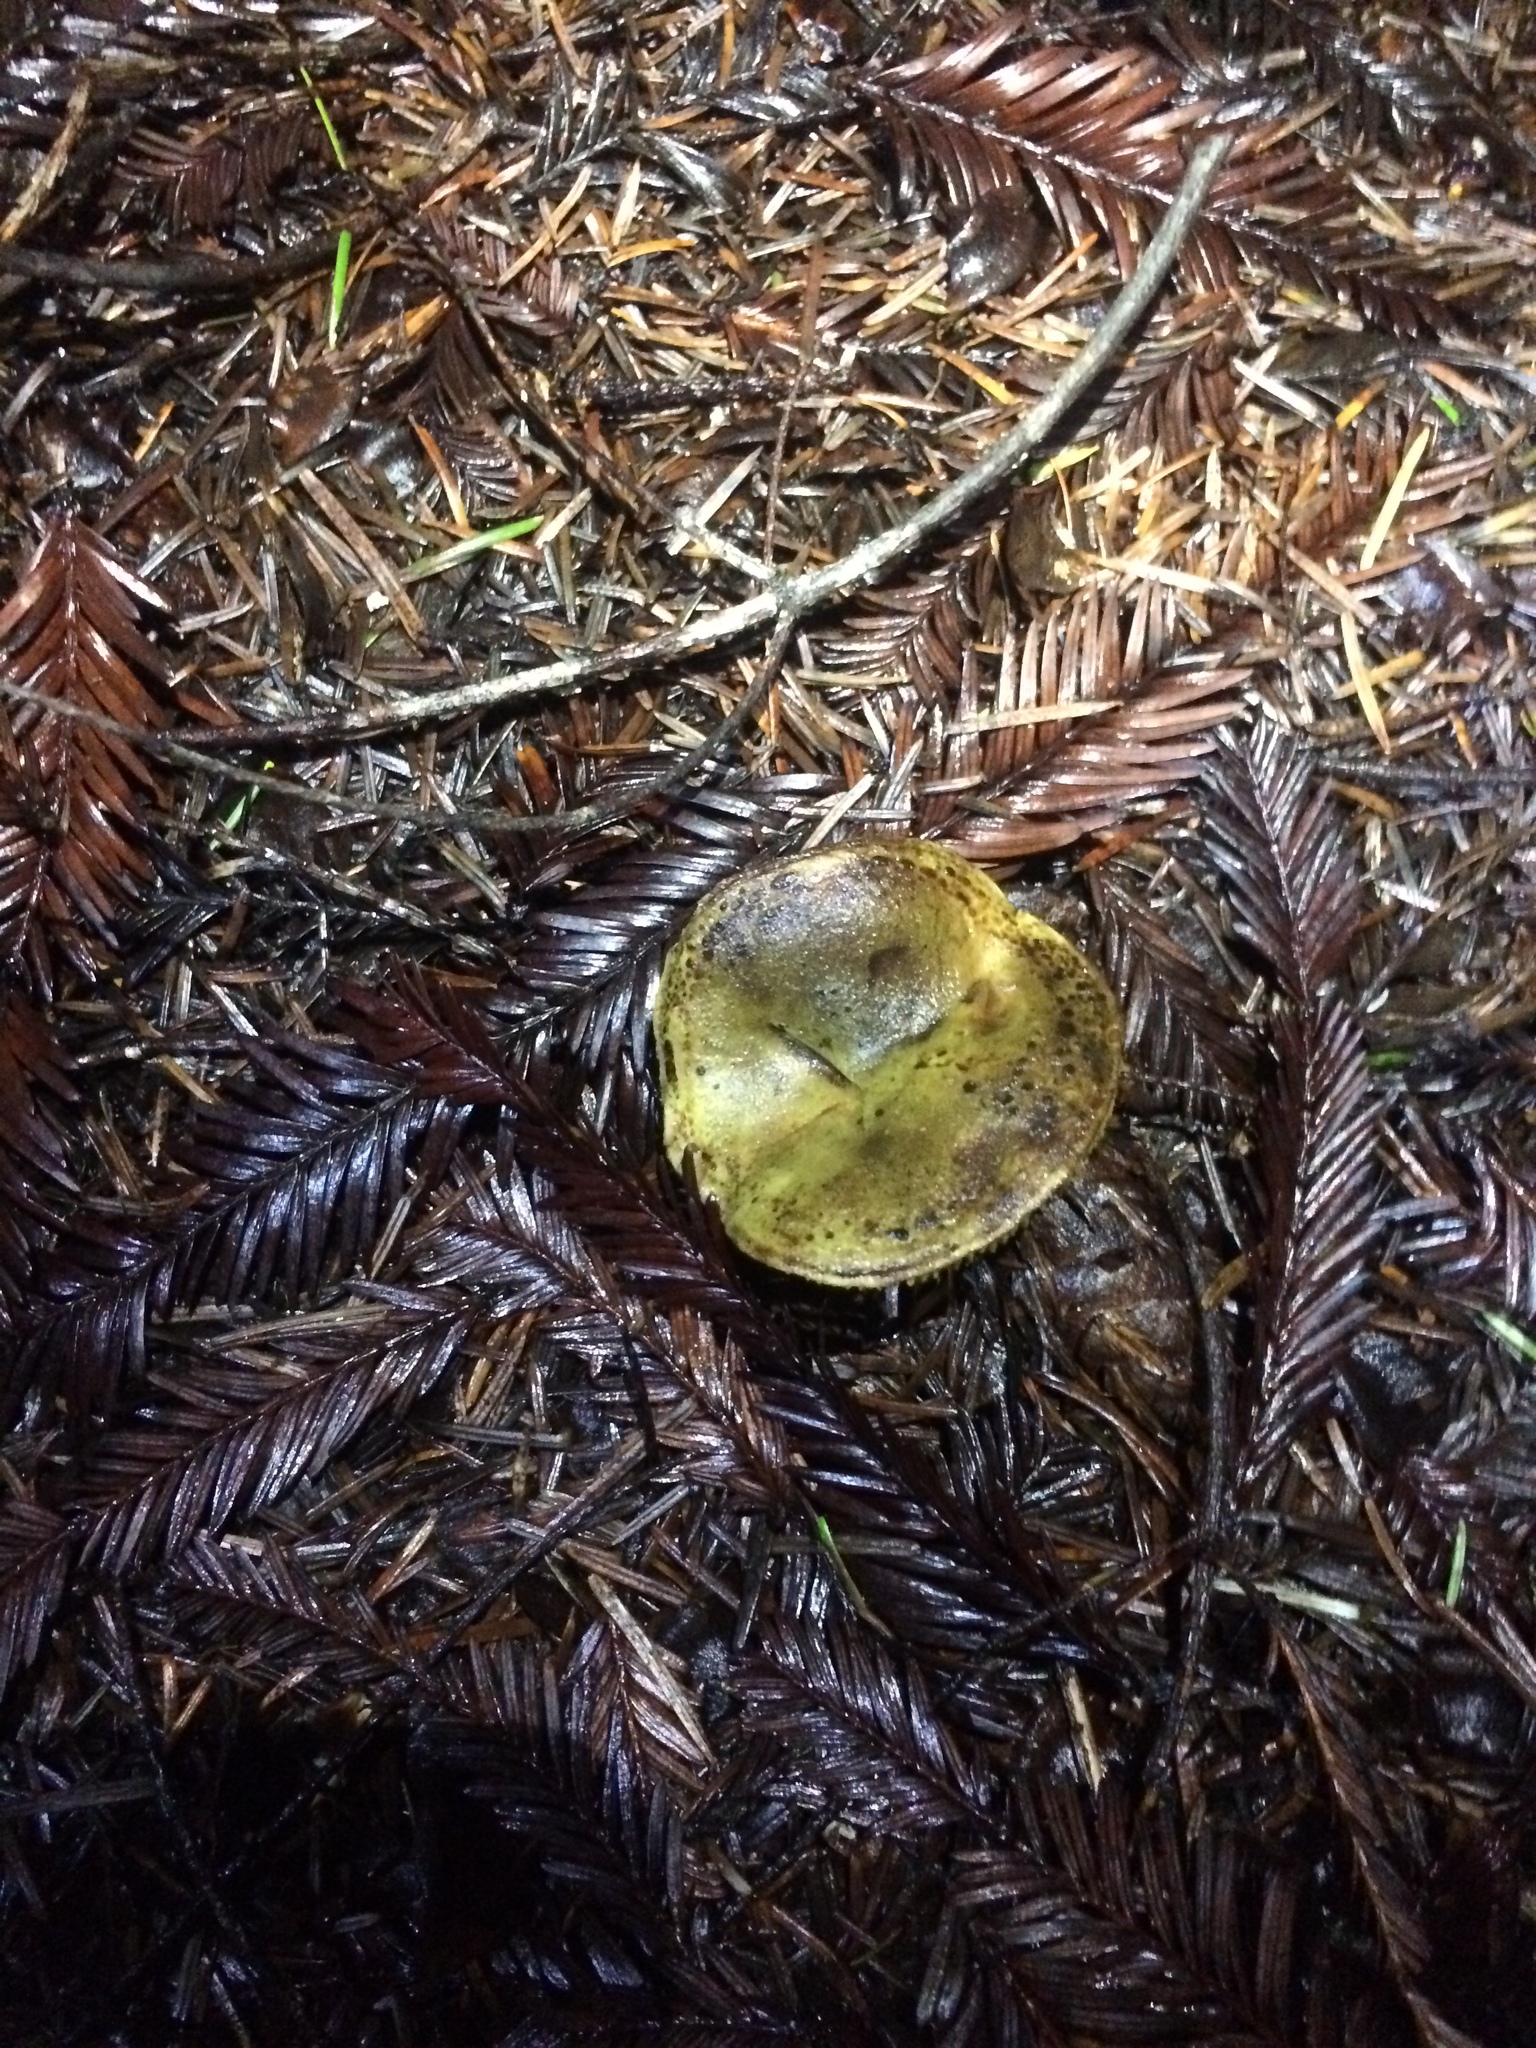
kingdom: Fungi
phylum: Basidiomycota
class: Agaricomycetes
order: Boletales
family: Boletaceae
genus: Phylloporus
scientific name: Phylloporus arenicola
